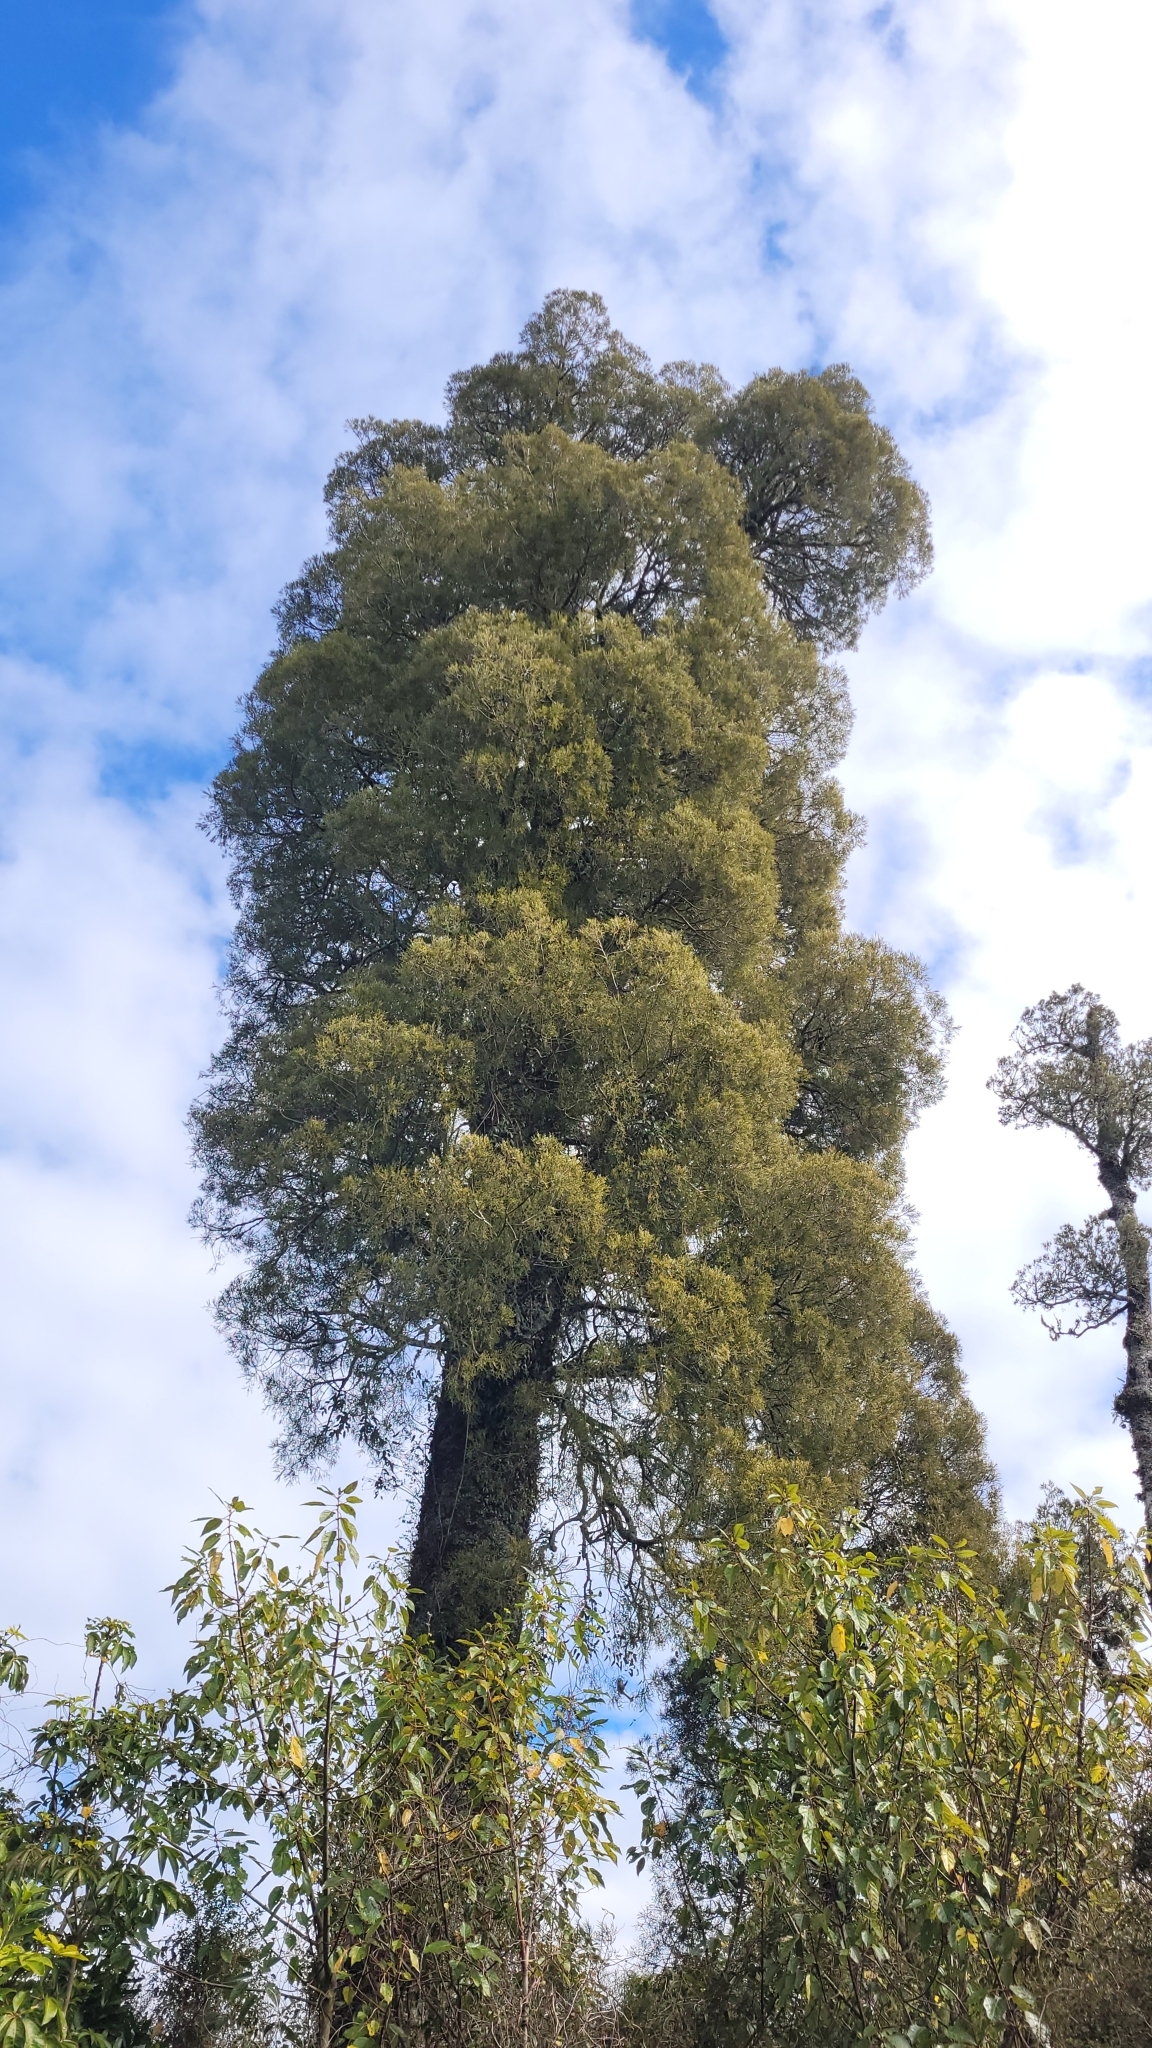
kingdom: Plantae
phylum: Tracheophyta
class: Pinopsida
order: Pinales
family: Podocarpaceae
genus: Dacrycarpus
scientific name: Dacrycarpus dacrydioides
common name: White pine
